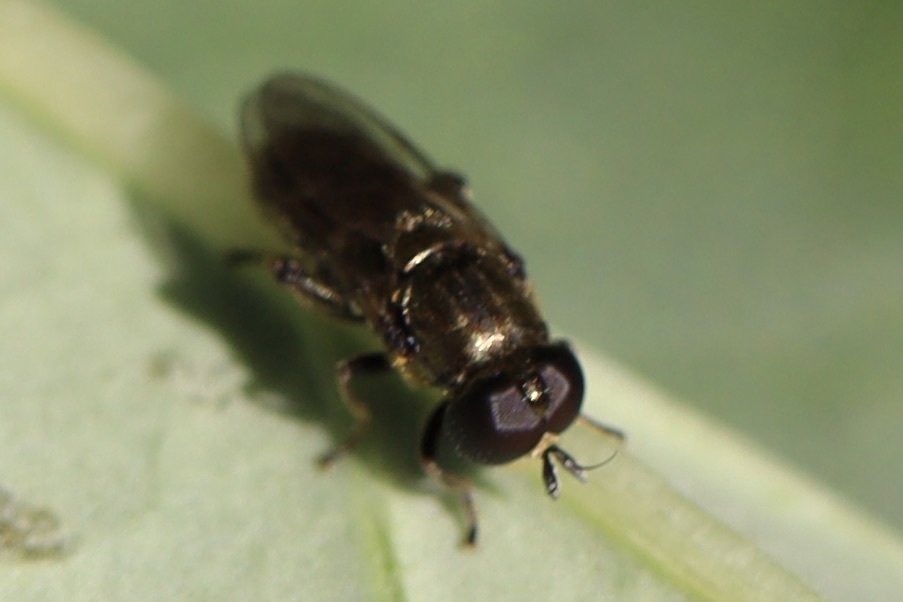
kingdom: Animalia
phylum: Arthropoda
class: Insecta
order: Diptera
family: Syrphidae
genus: Eumerus
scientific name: Eumerus
